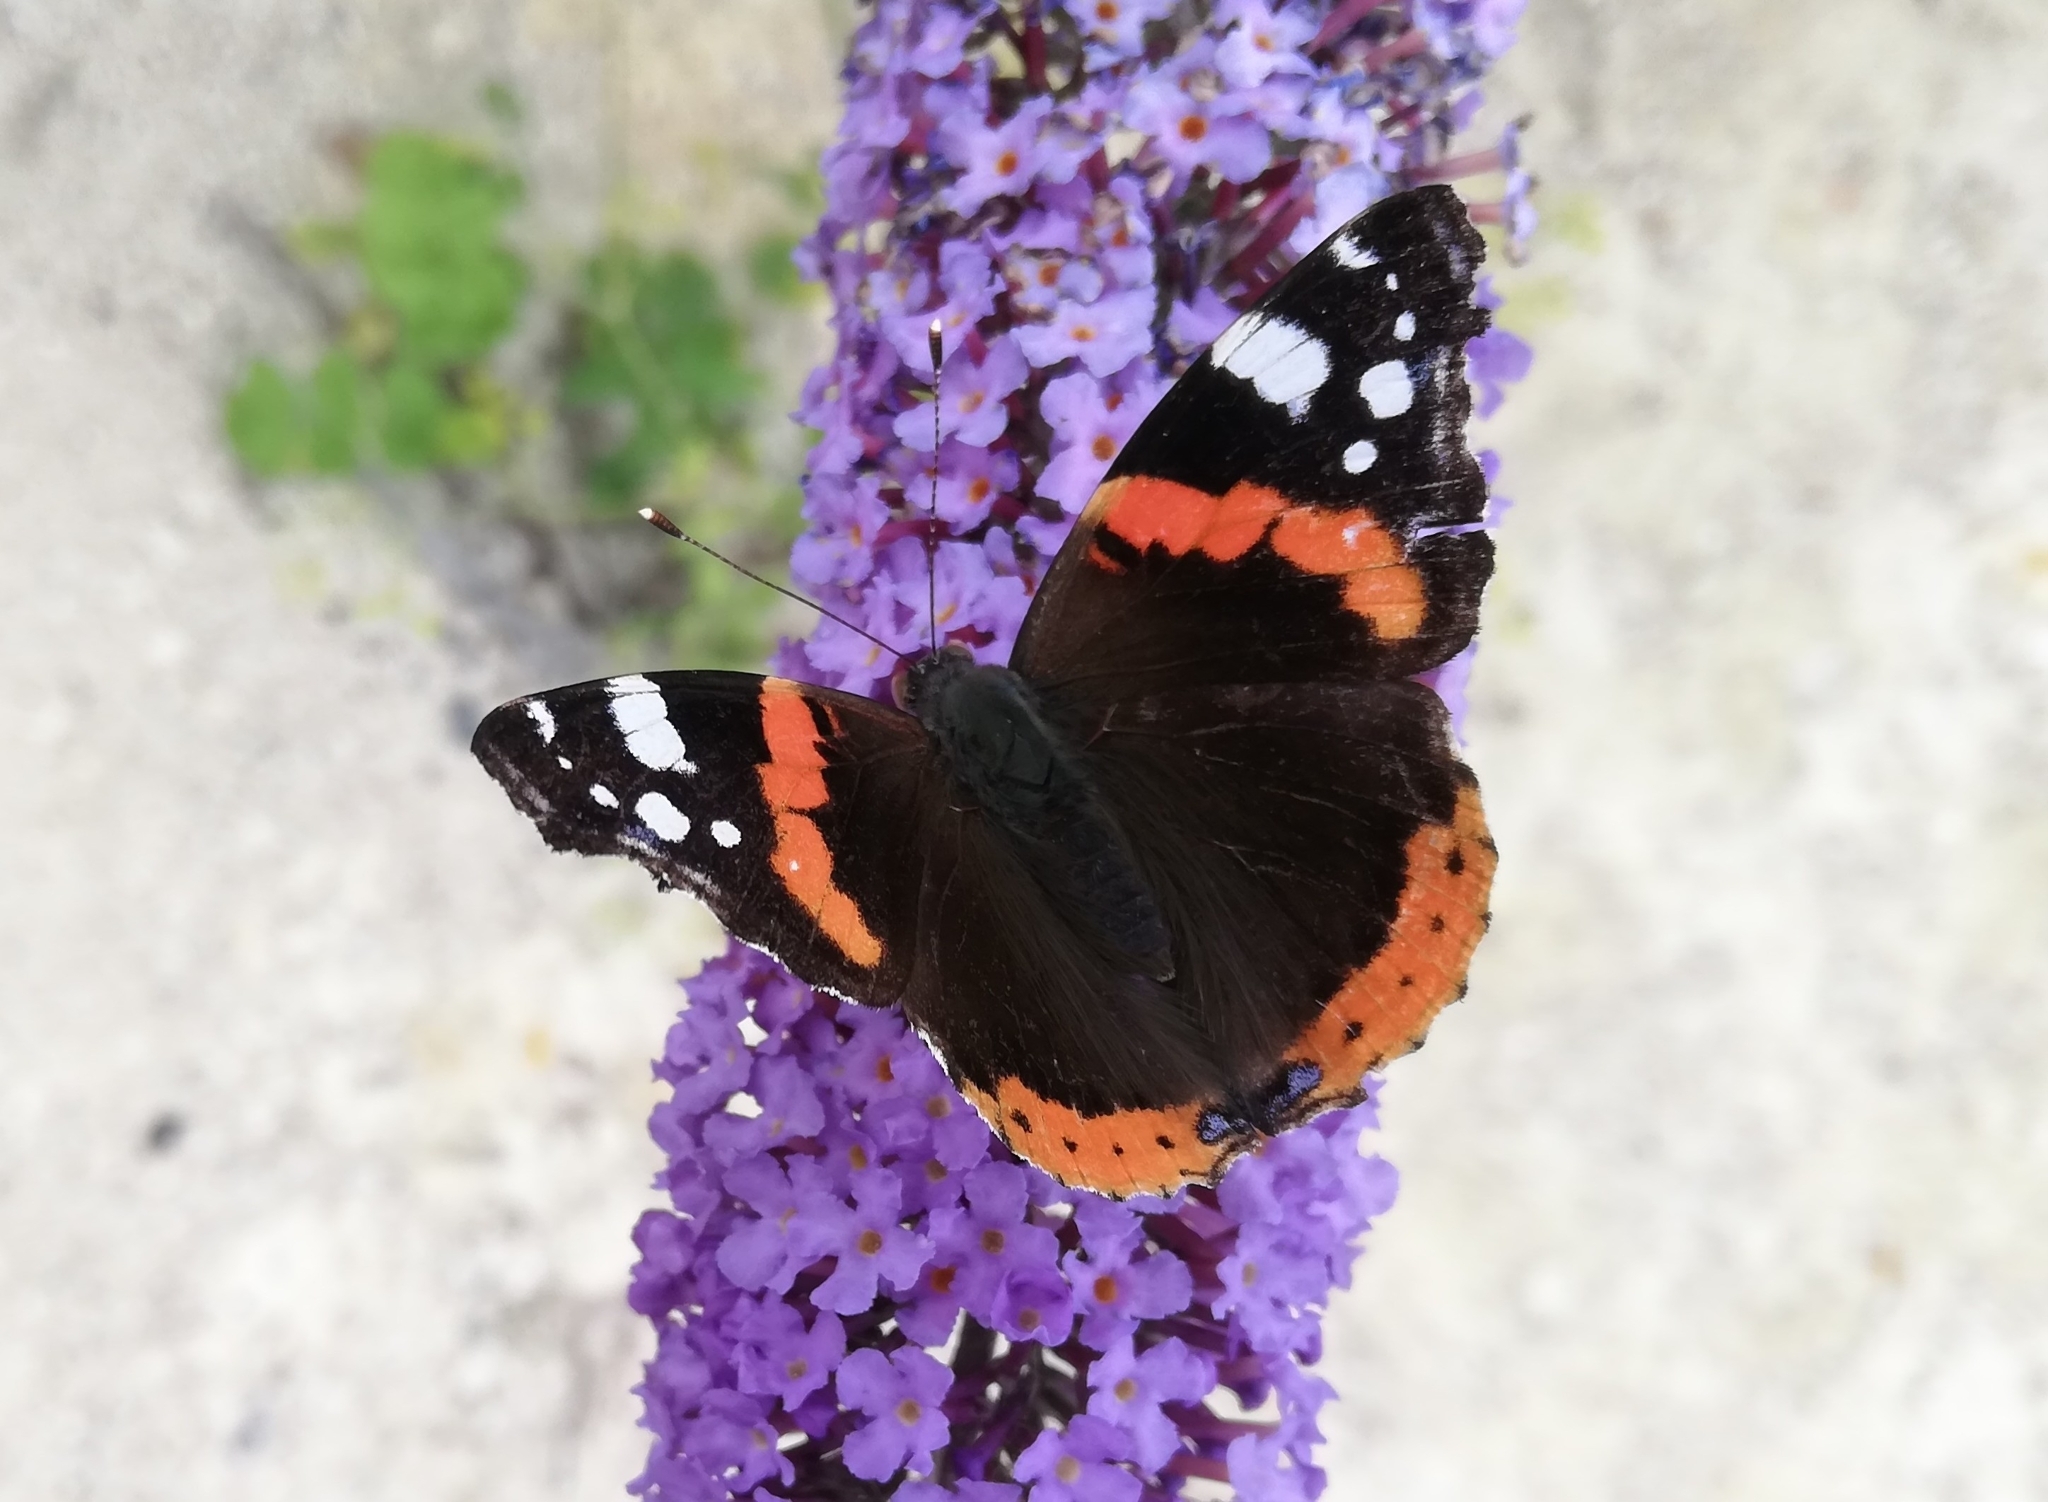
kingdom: Animalia
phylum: Arthropoda
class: Insecta
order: Lepidoptera
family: Nymphalidae
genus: Vanessa
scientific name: Vanessa atalanta
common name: Red admiral
